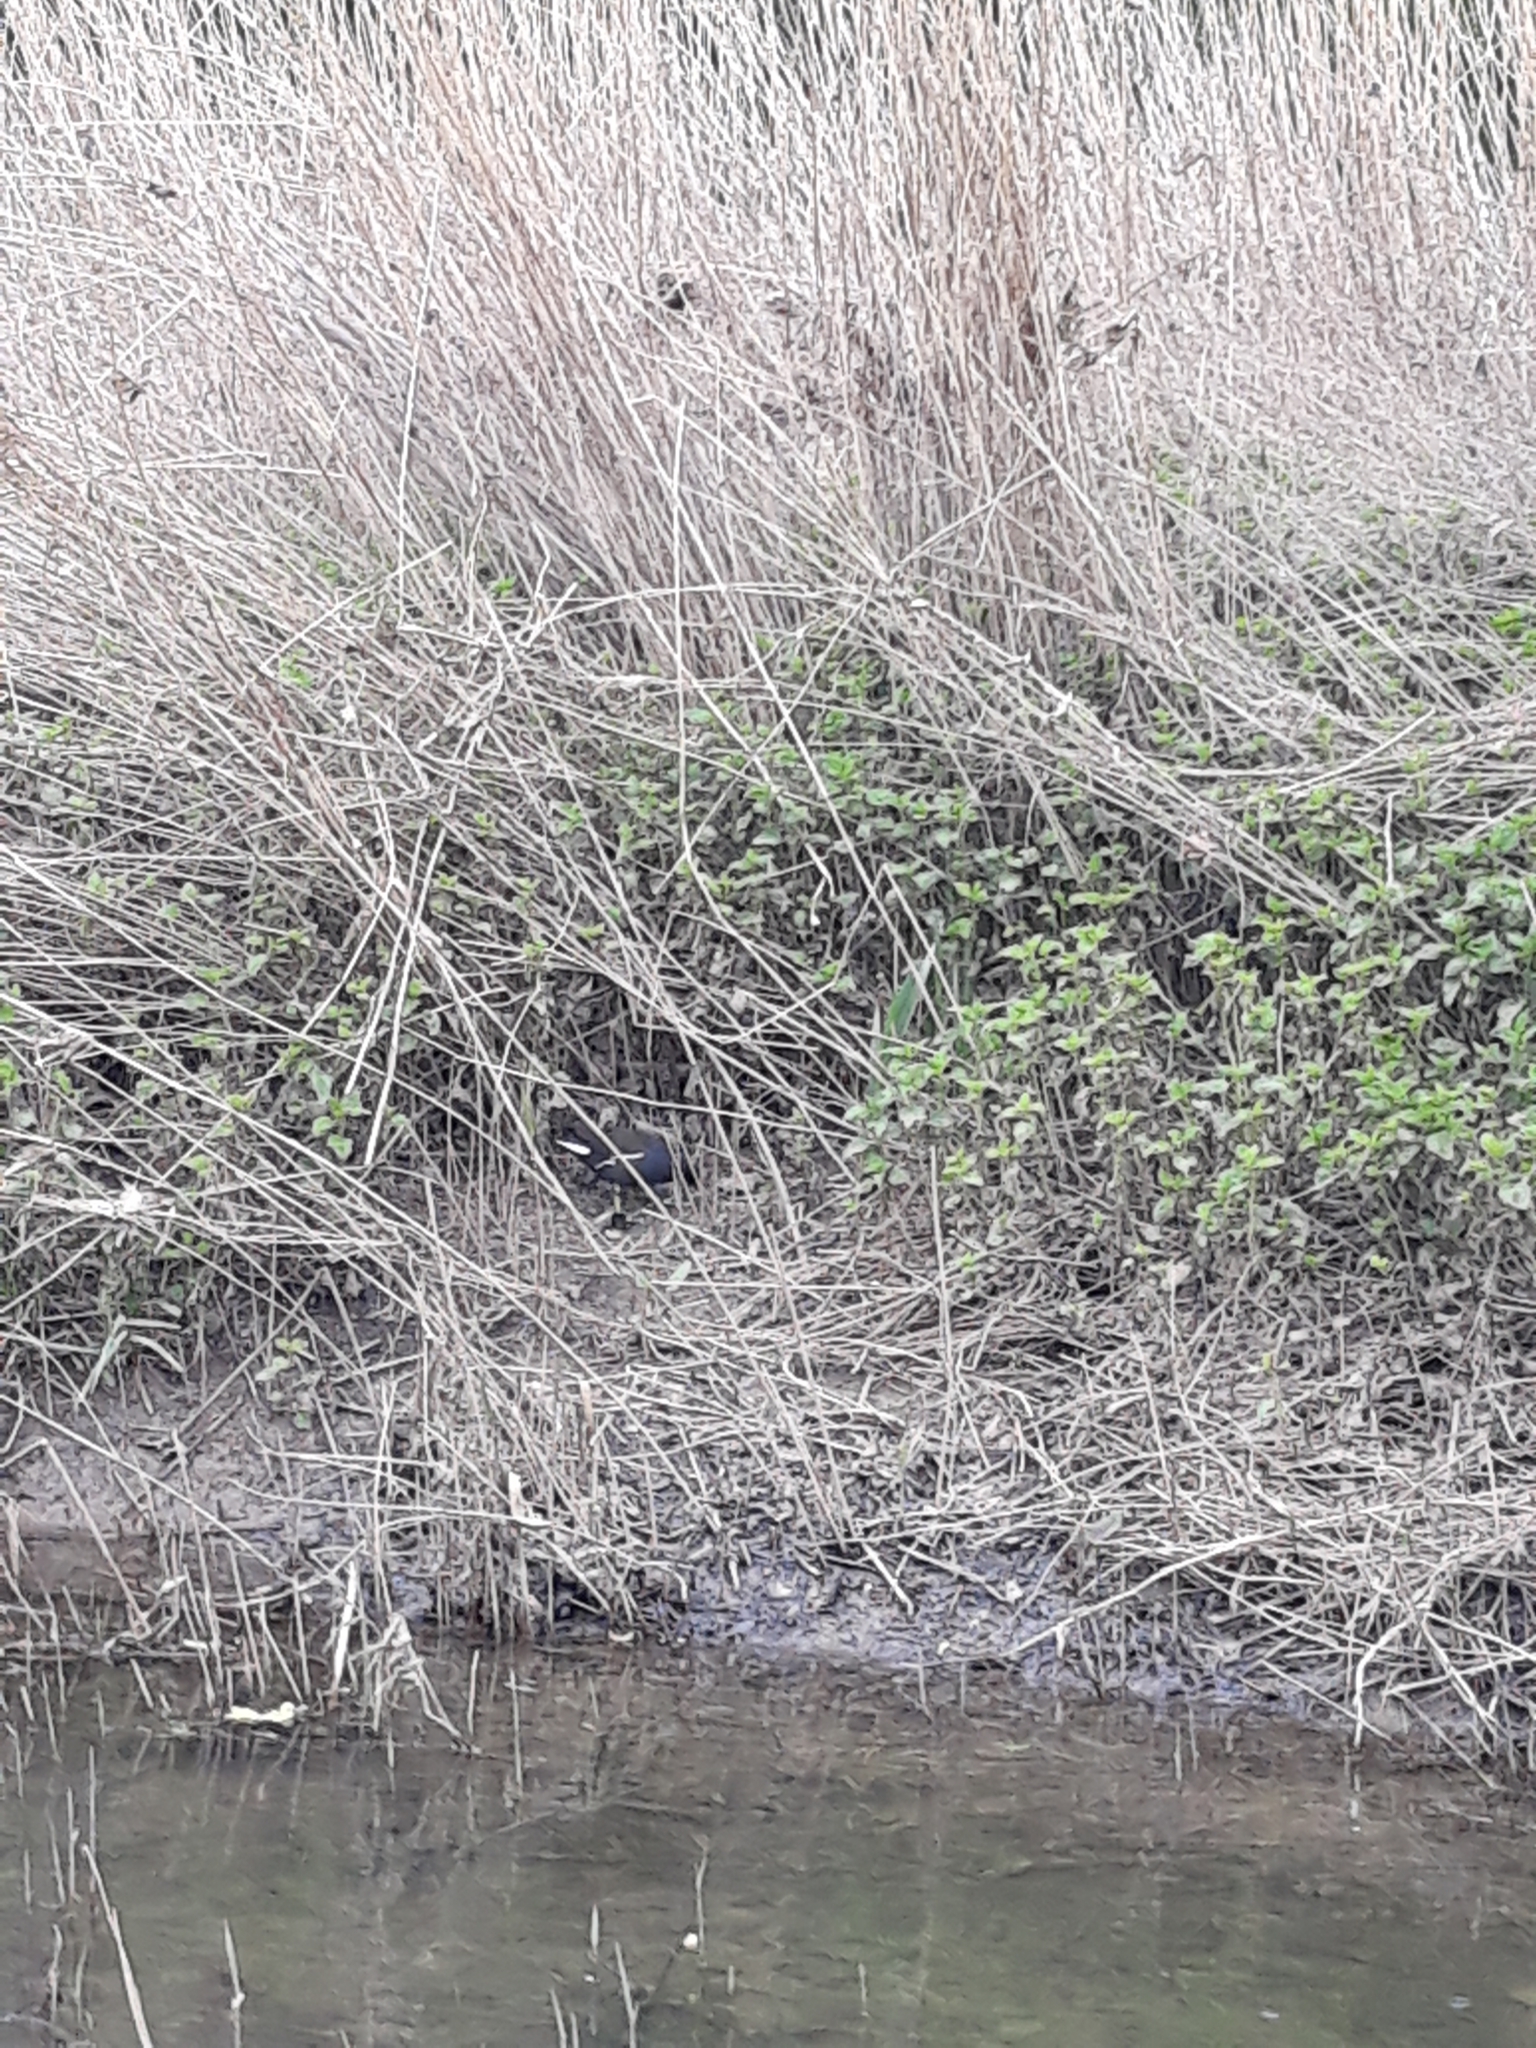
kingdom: Animalia
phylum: Chordata
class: Aves
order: Gruiformes
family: Rallidae
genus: Gallinula
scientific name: Gallinula chloropus
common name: Common moorhen
